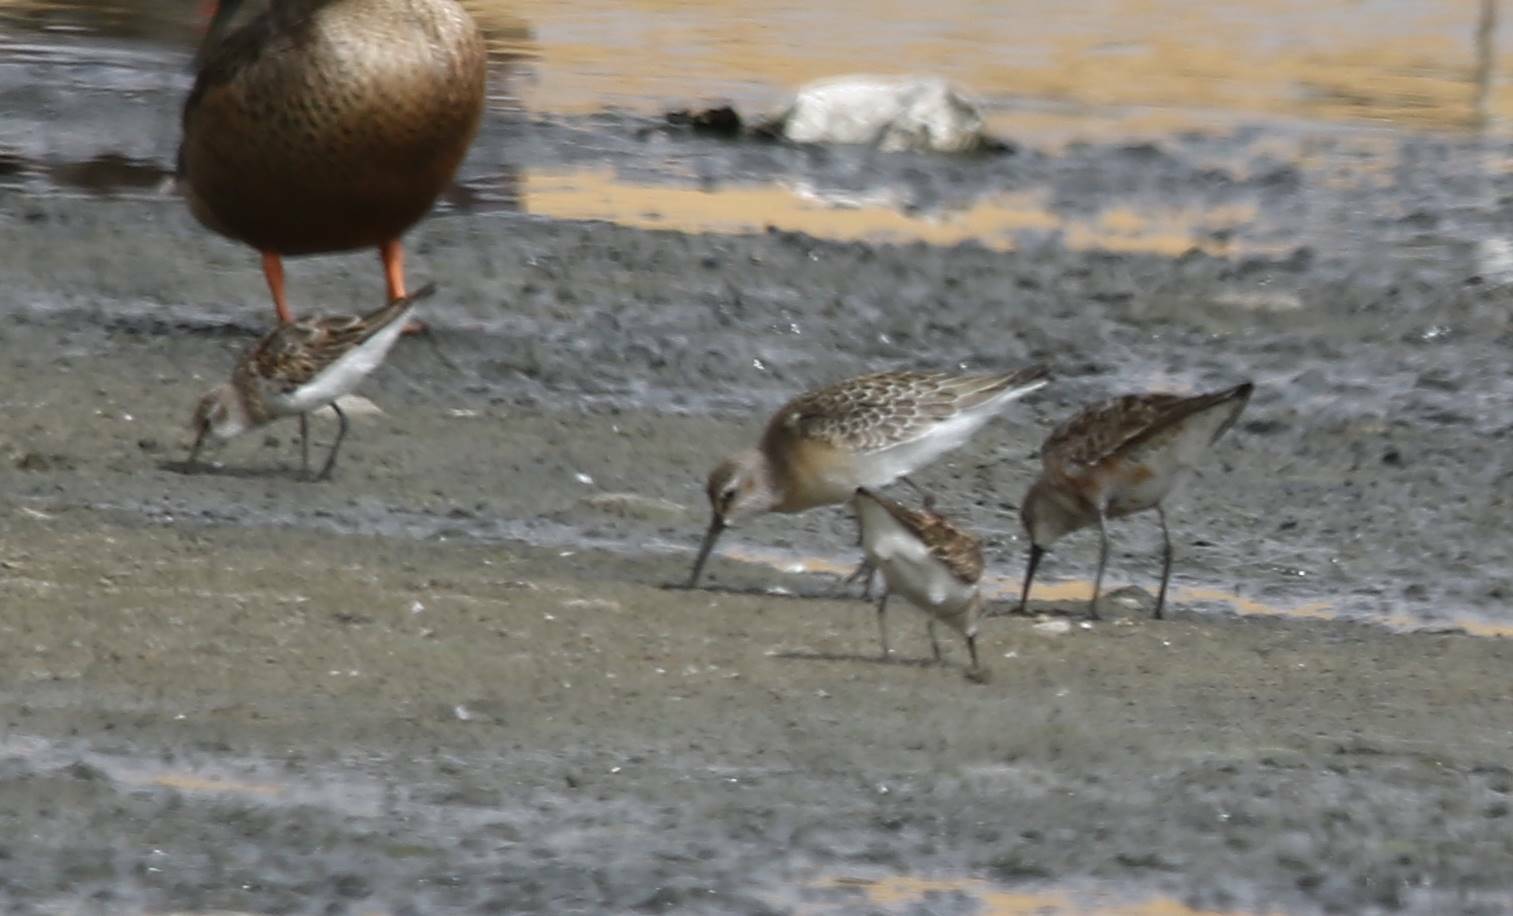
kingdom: Animalia
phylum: Chordata
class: Aves
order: Charadriiformes
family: Scolopacidae
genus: Calidris
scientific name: Calidris ferruginea
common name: Curlew sandpiper
